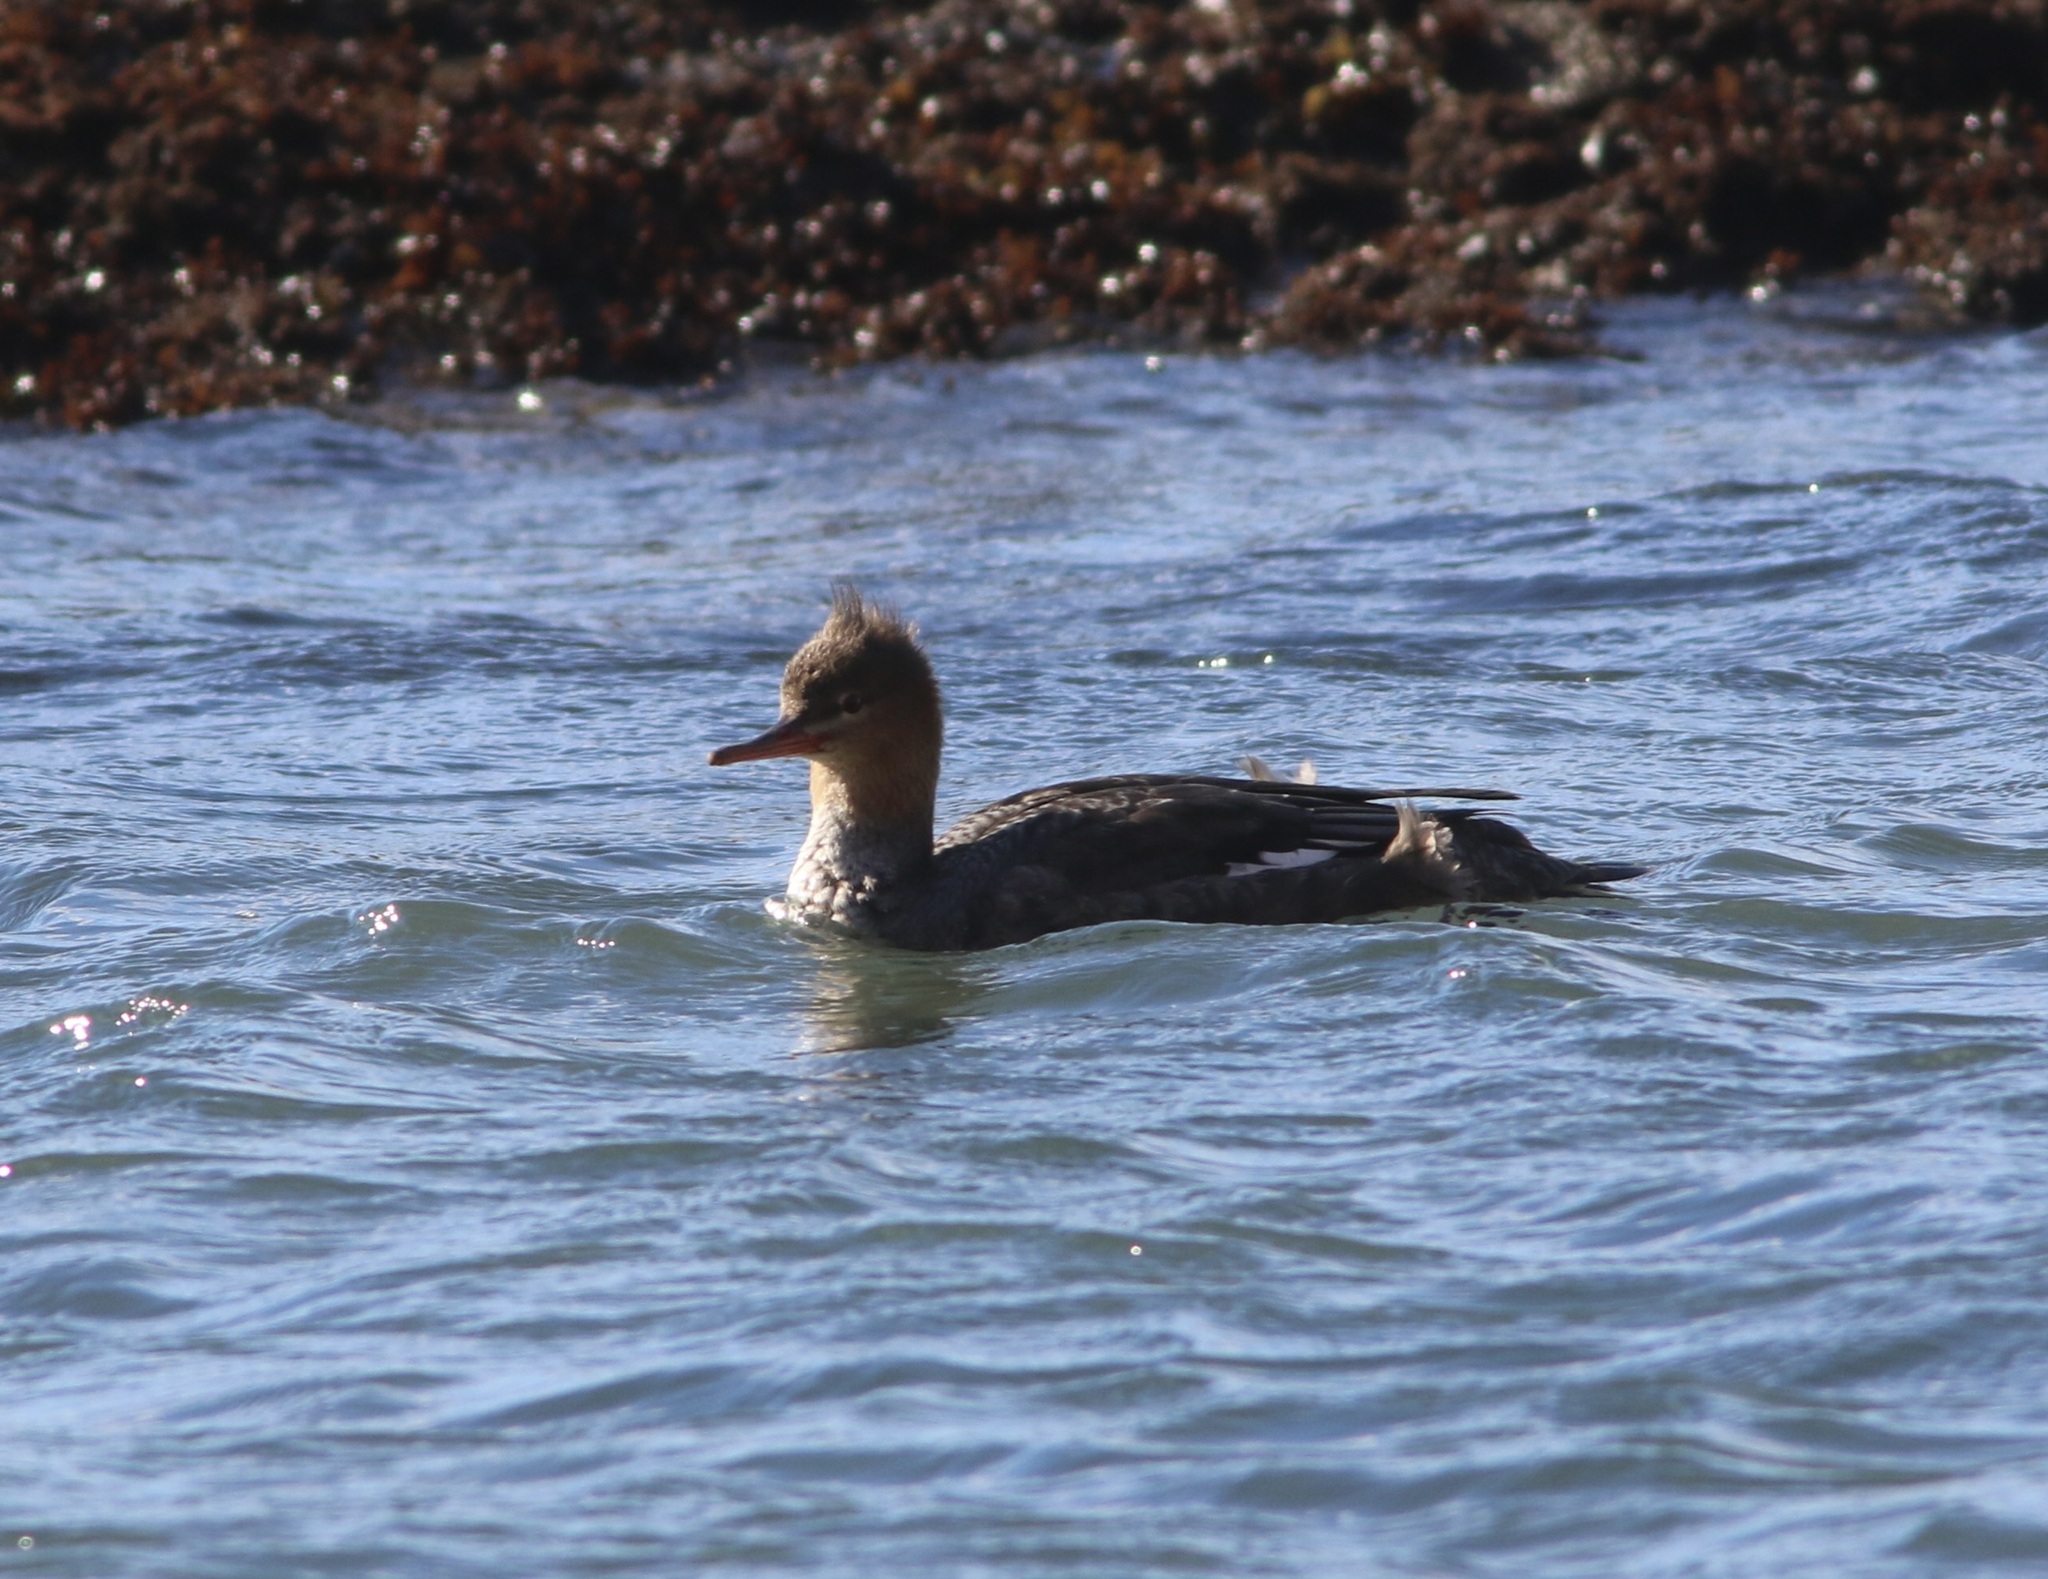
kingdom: Animalia
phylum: Chordata
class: Aves
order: Anseriformes
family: Anatidae
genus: Mergus
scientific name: Mergus serrator
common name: Red-breasted merganser
